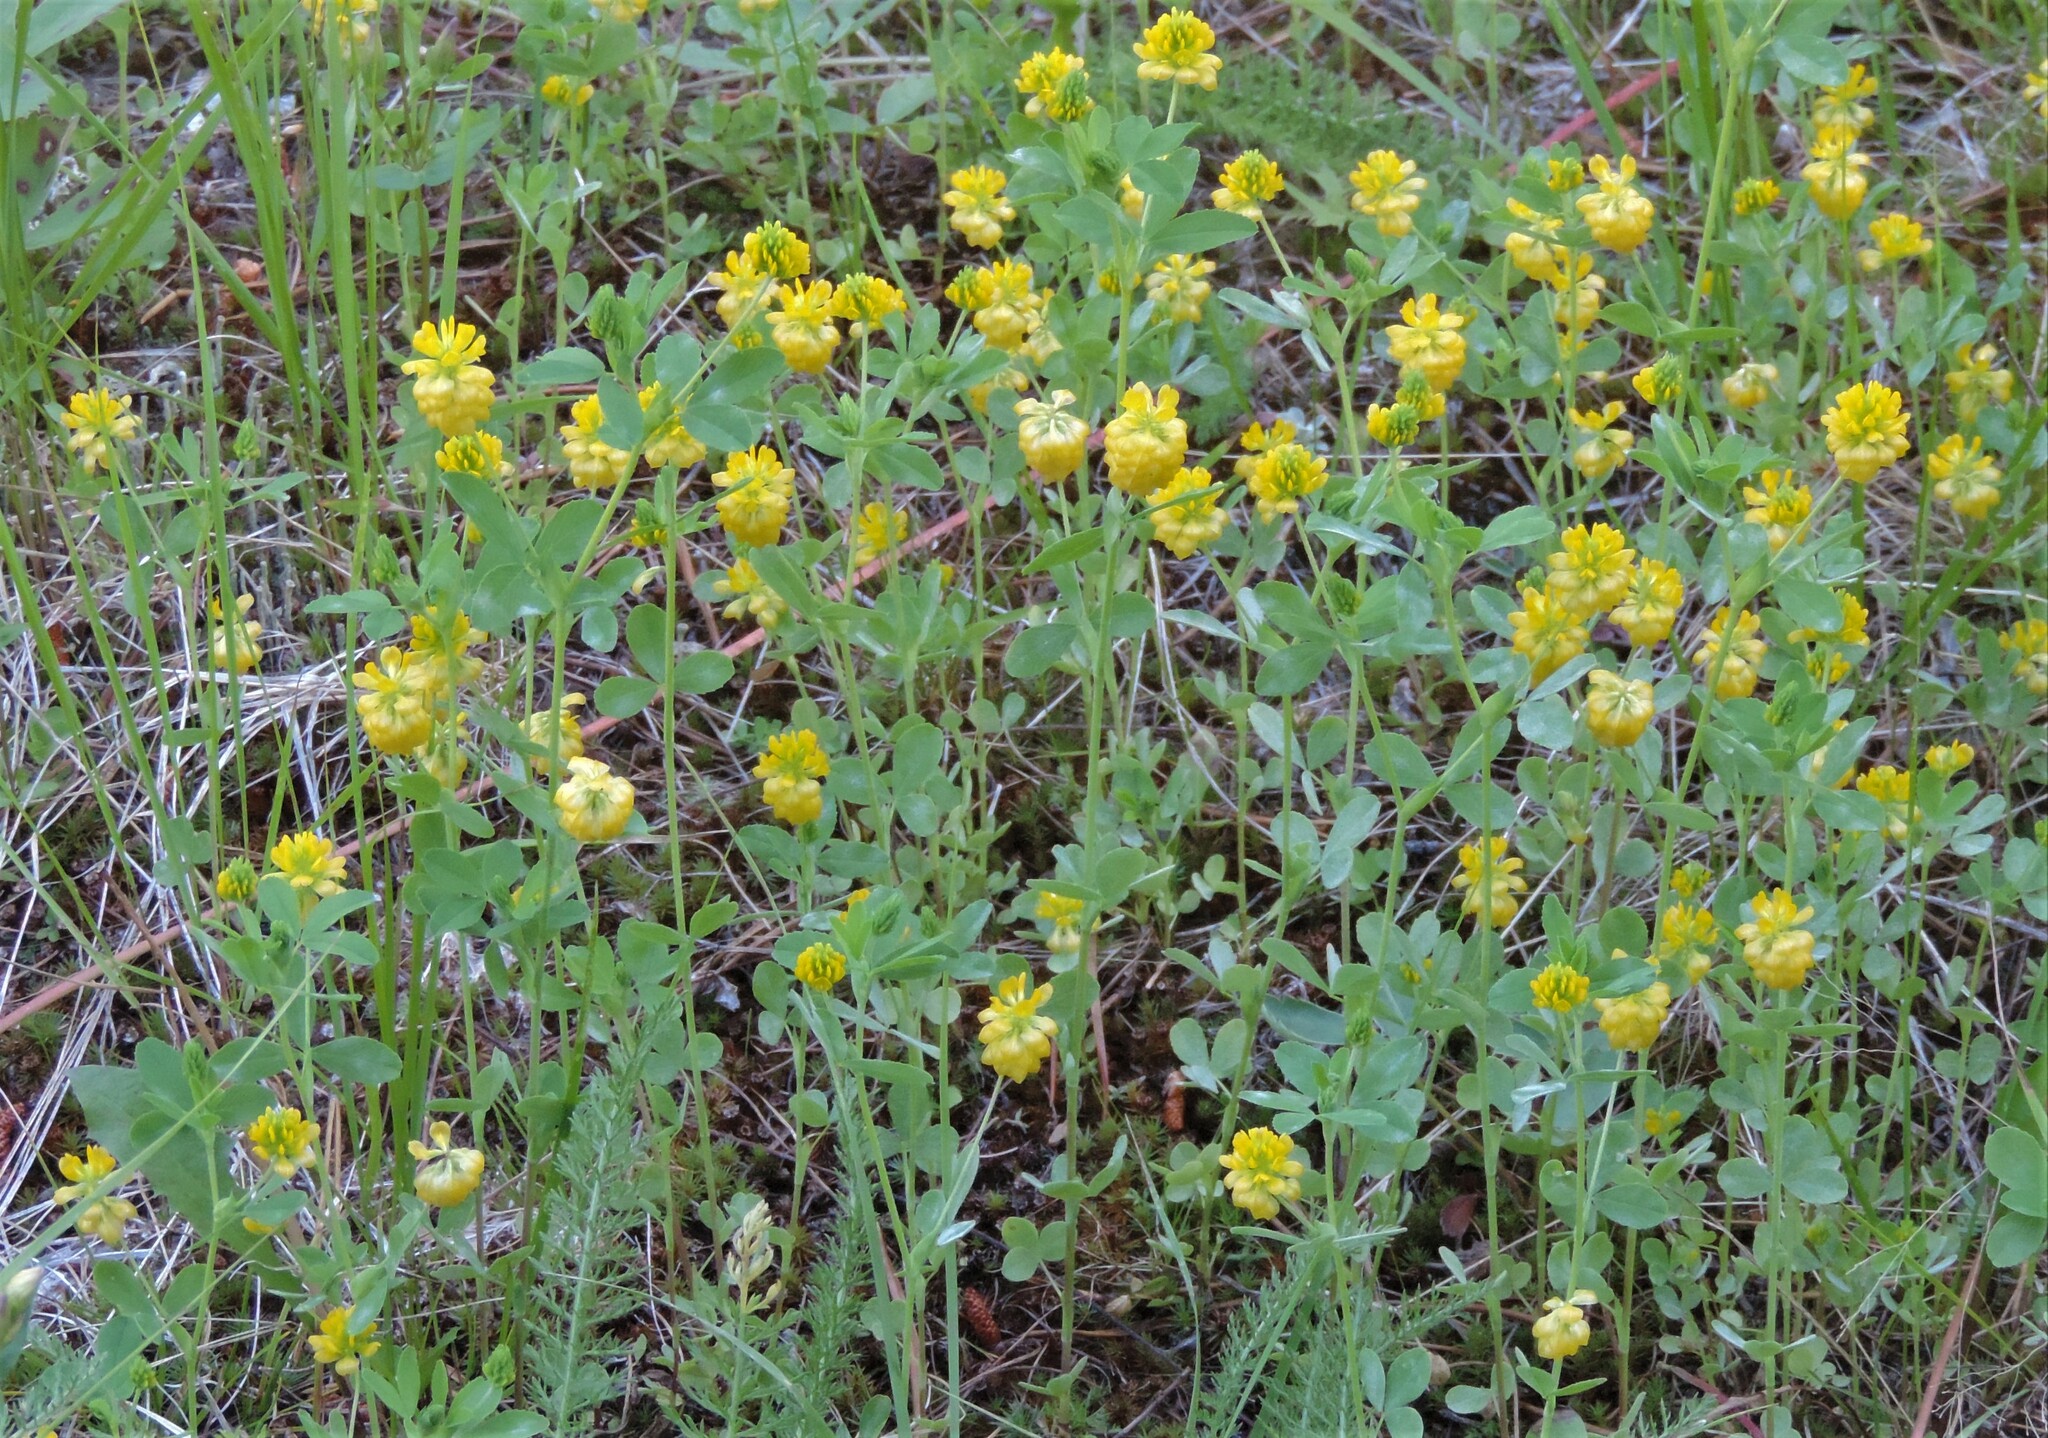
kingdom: Plantae
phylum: Tracheophyta
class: Magnoliopsida
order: Fabales
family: Fabaceae
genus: Trifolium
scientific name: Trifolium aureum
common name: Golden clover
